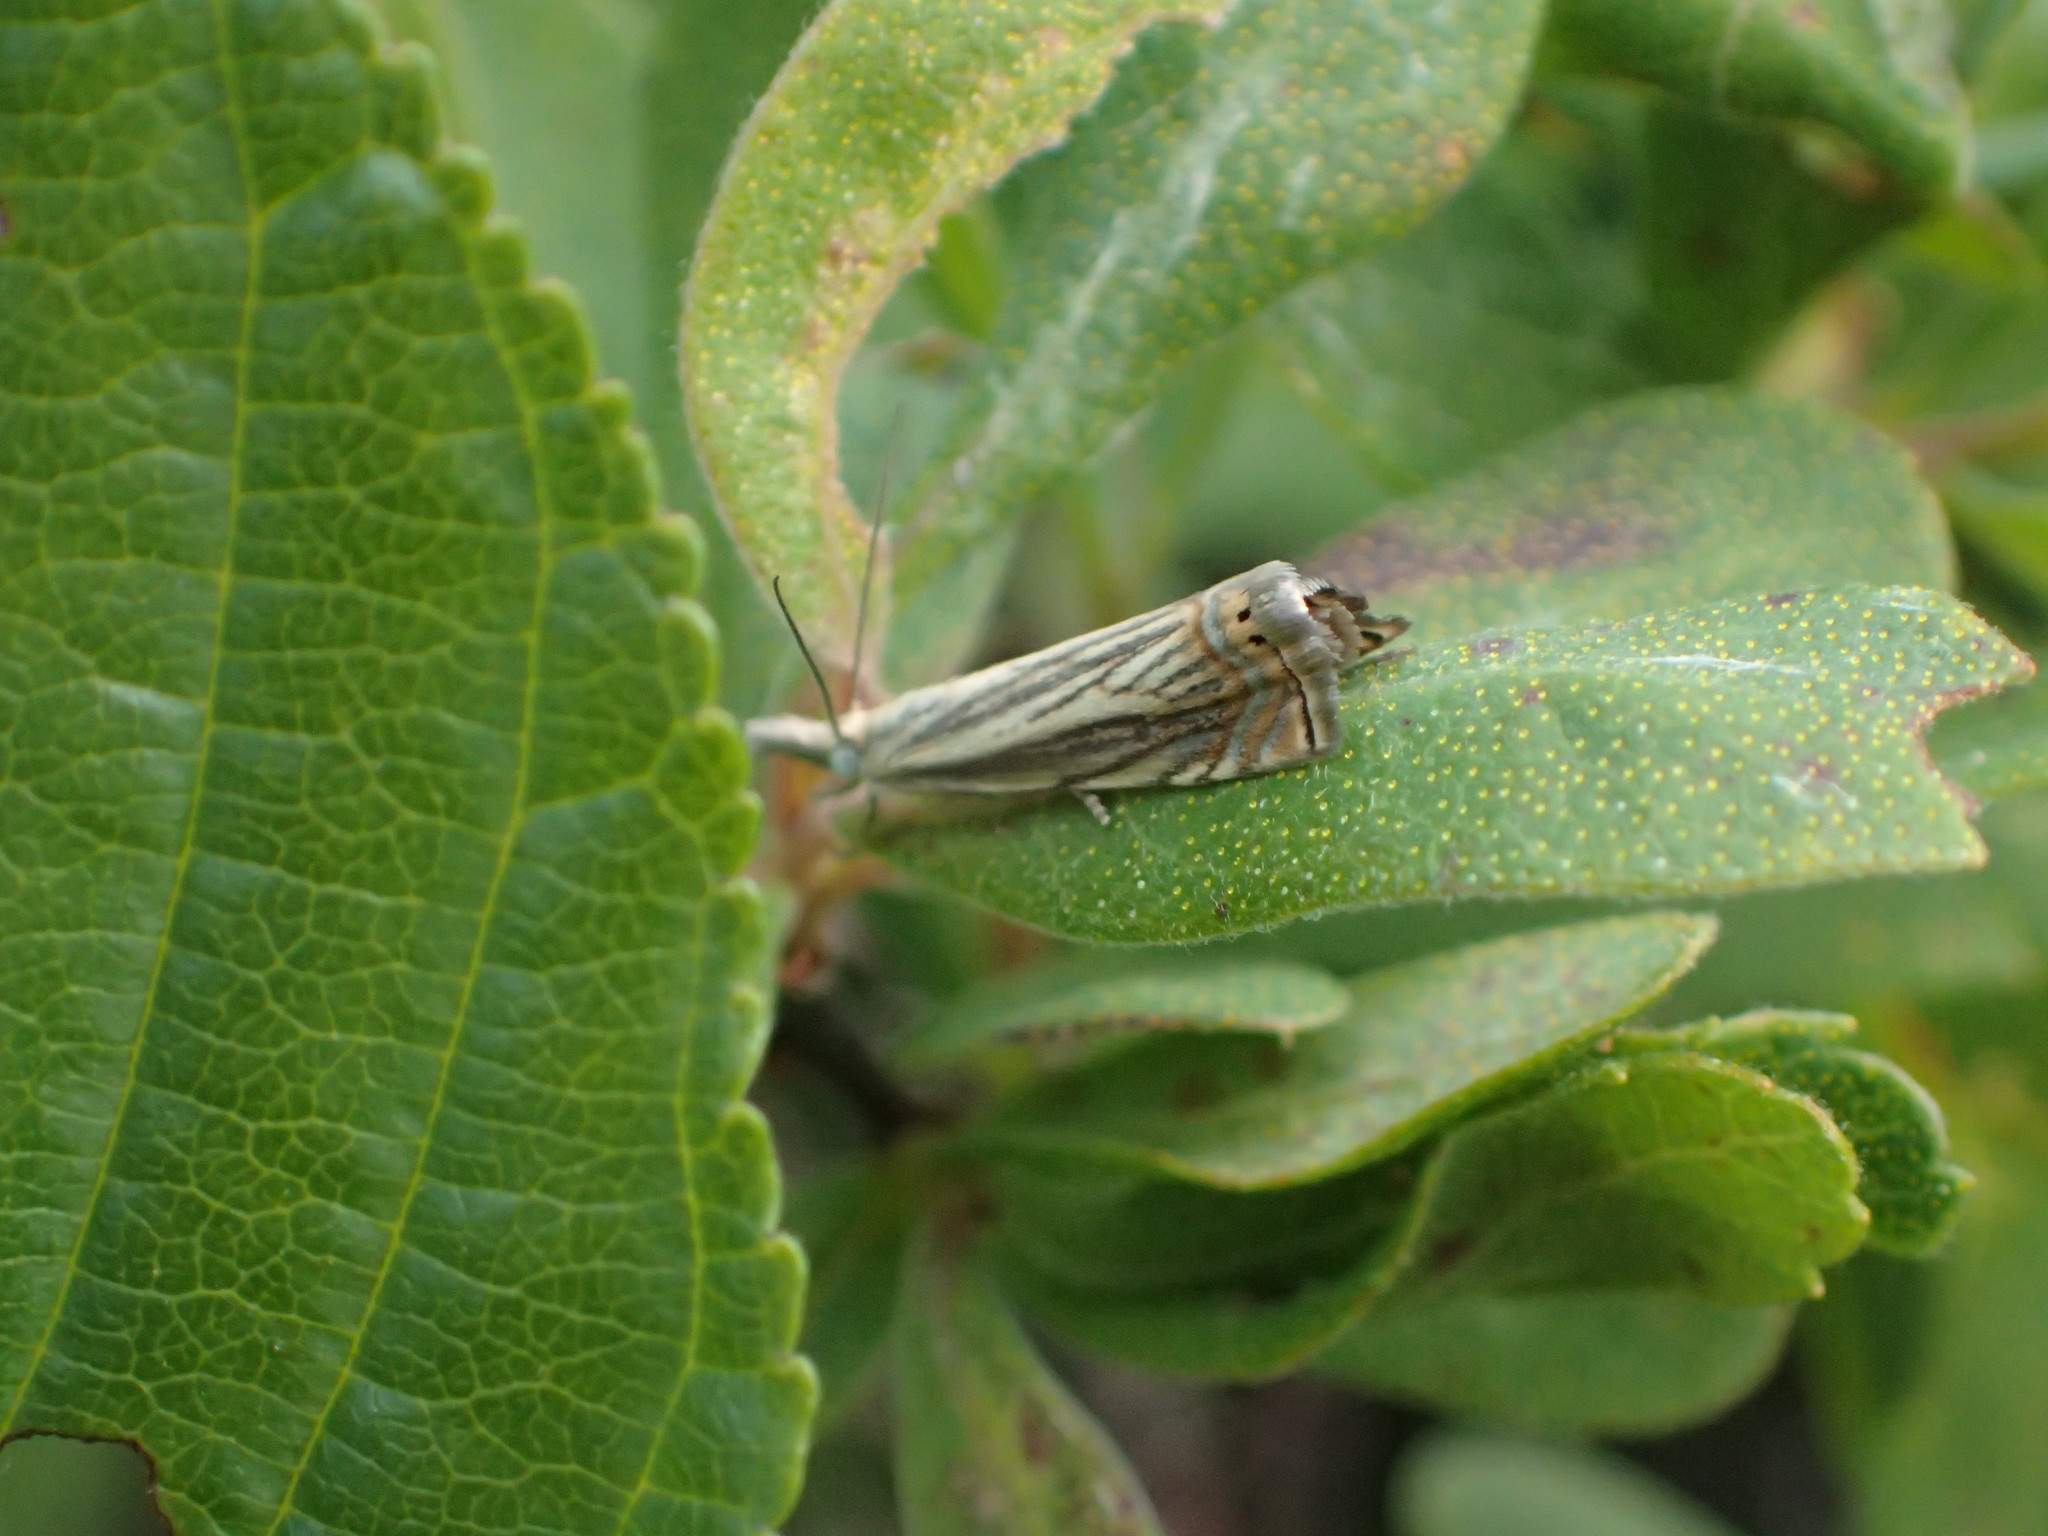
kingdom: Animalia
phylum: Arthropoda
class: Insecta
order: Lepidoptera
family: Crambidae
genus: Chrysoteuchia
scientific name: Chrysoteuchia topiarius
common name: Topiary grass-veneer
